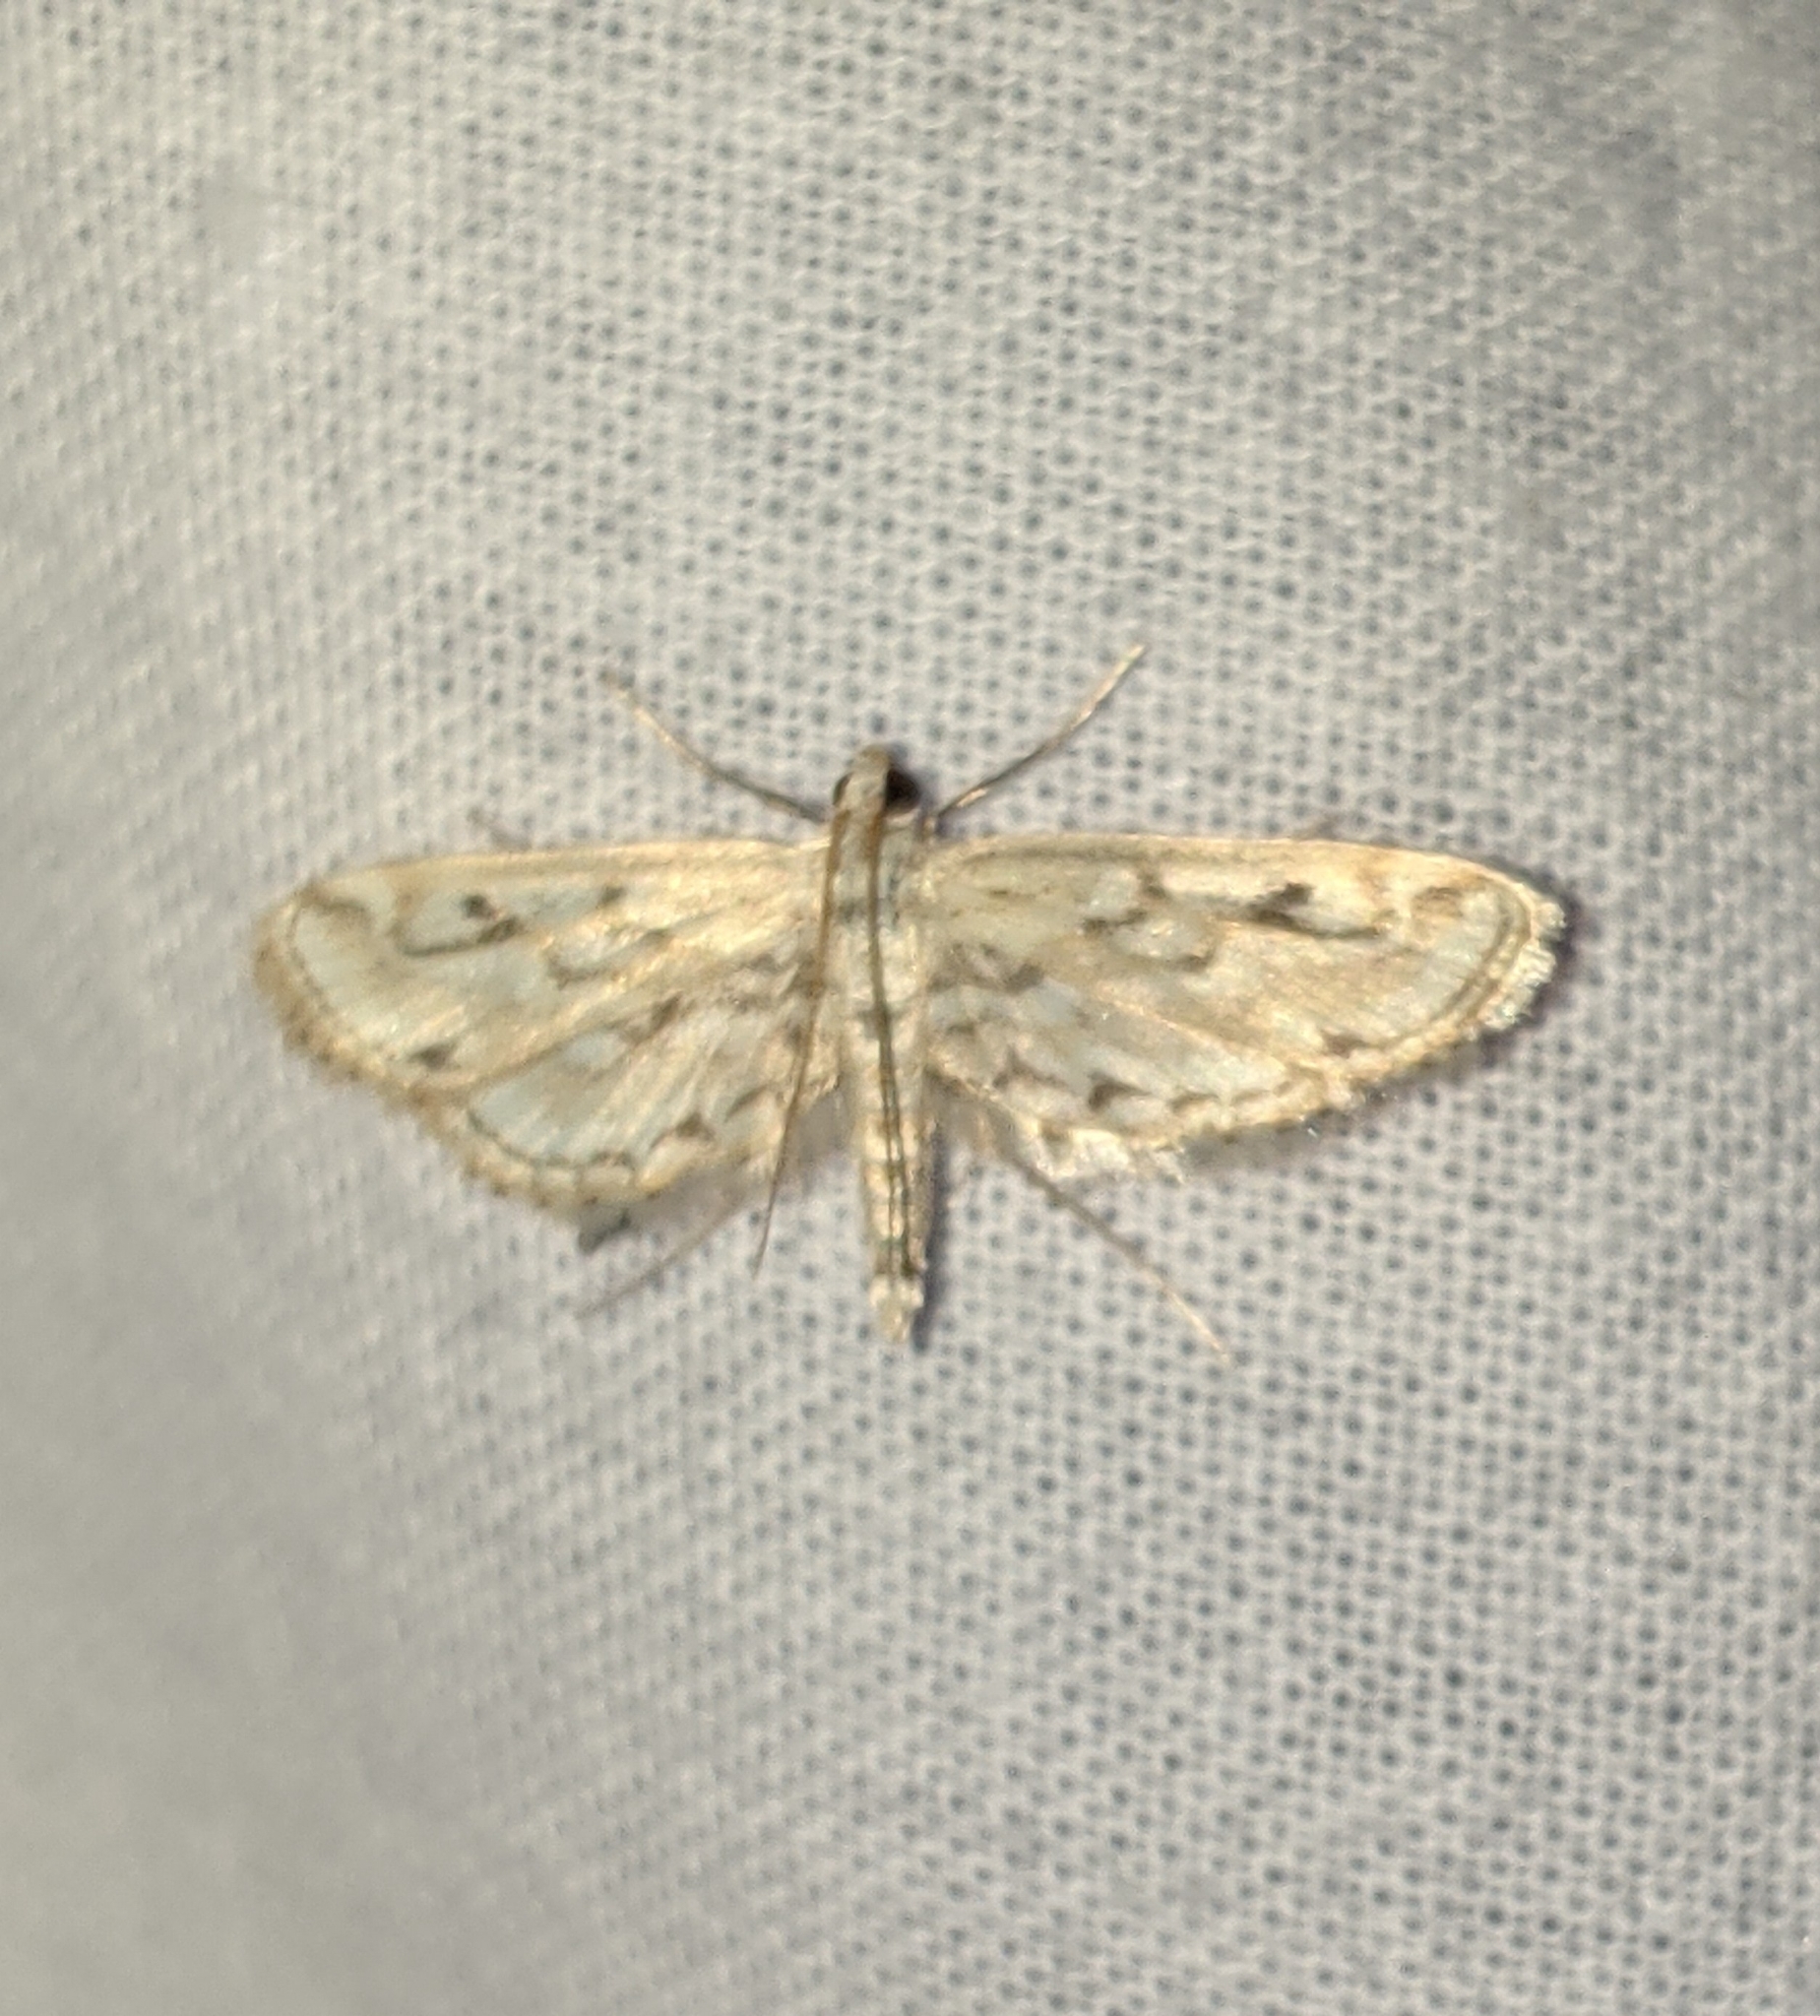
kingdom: Animalia
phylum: Arthropoda
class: Insecta
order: Lepidoptera
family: Crambidae
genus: Parapoynx
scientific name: Parapoynx allionealis
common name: Bladderwort casemaker
